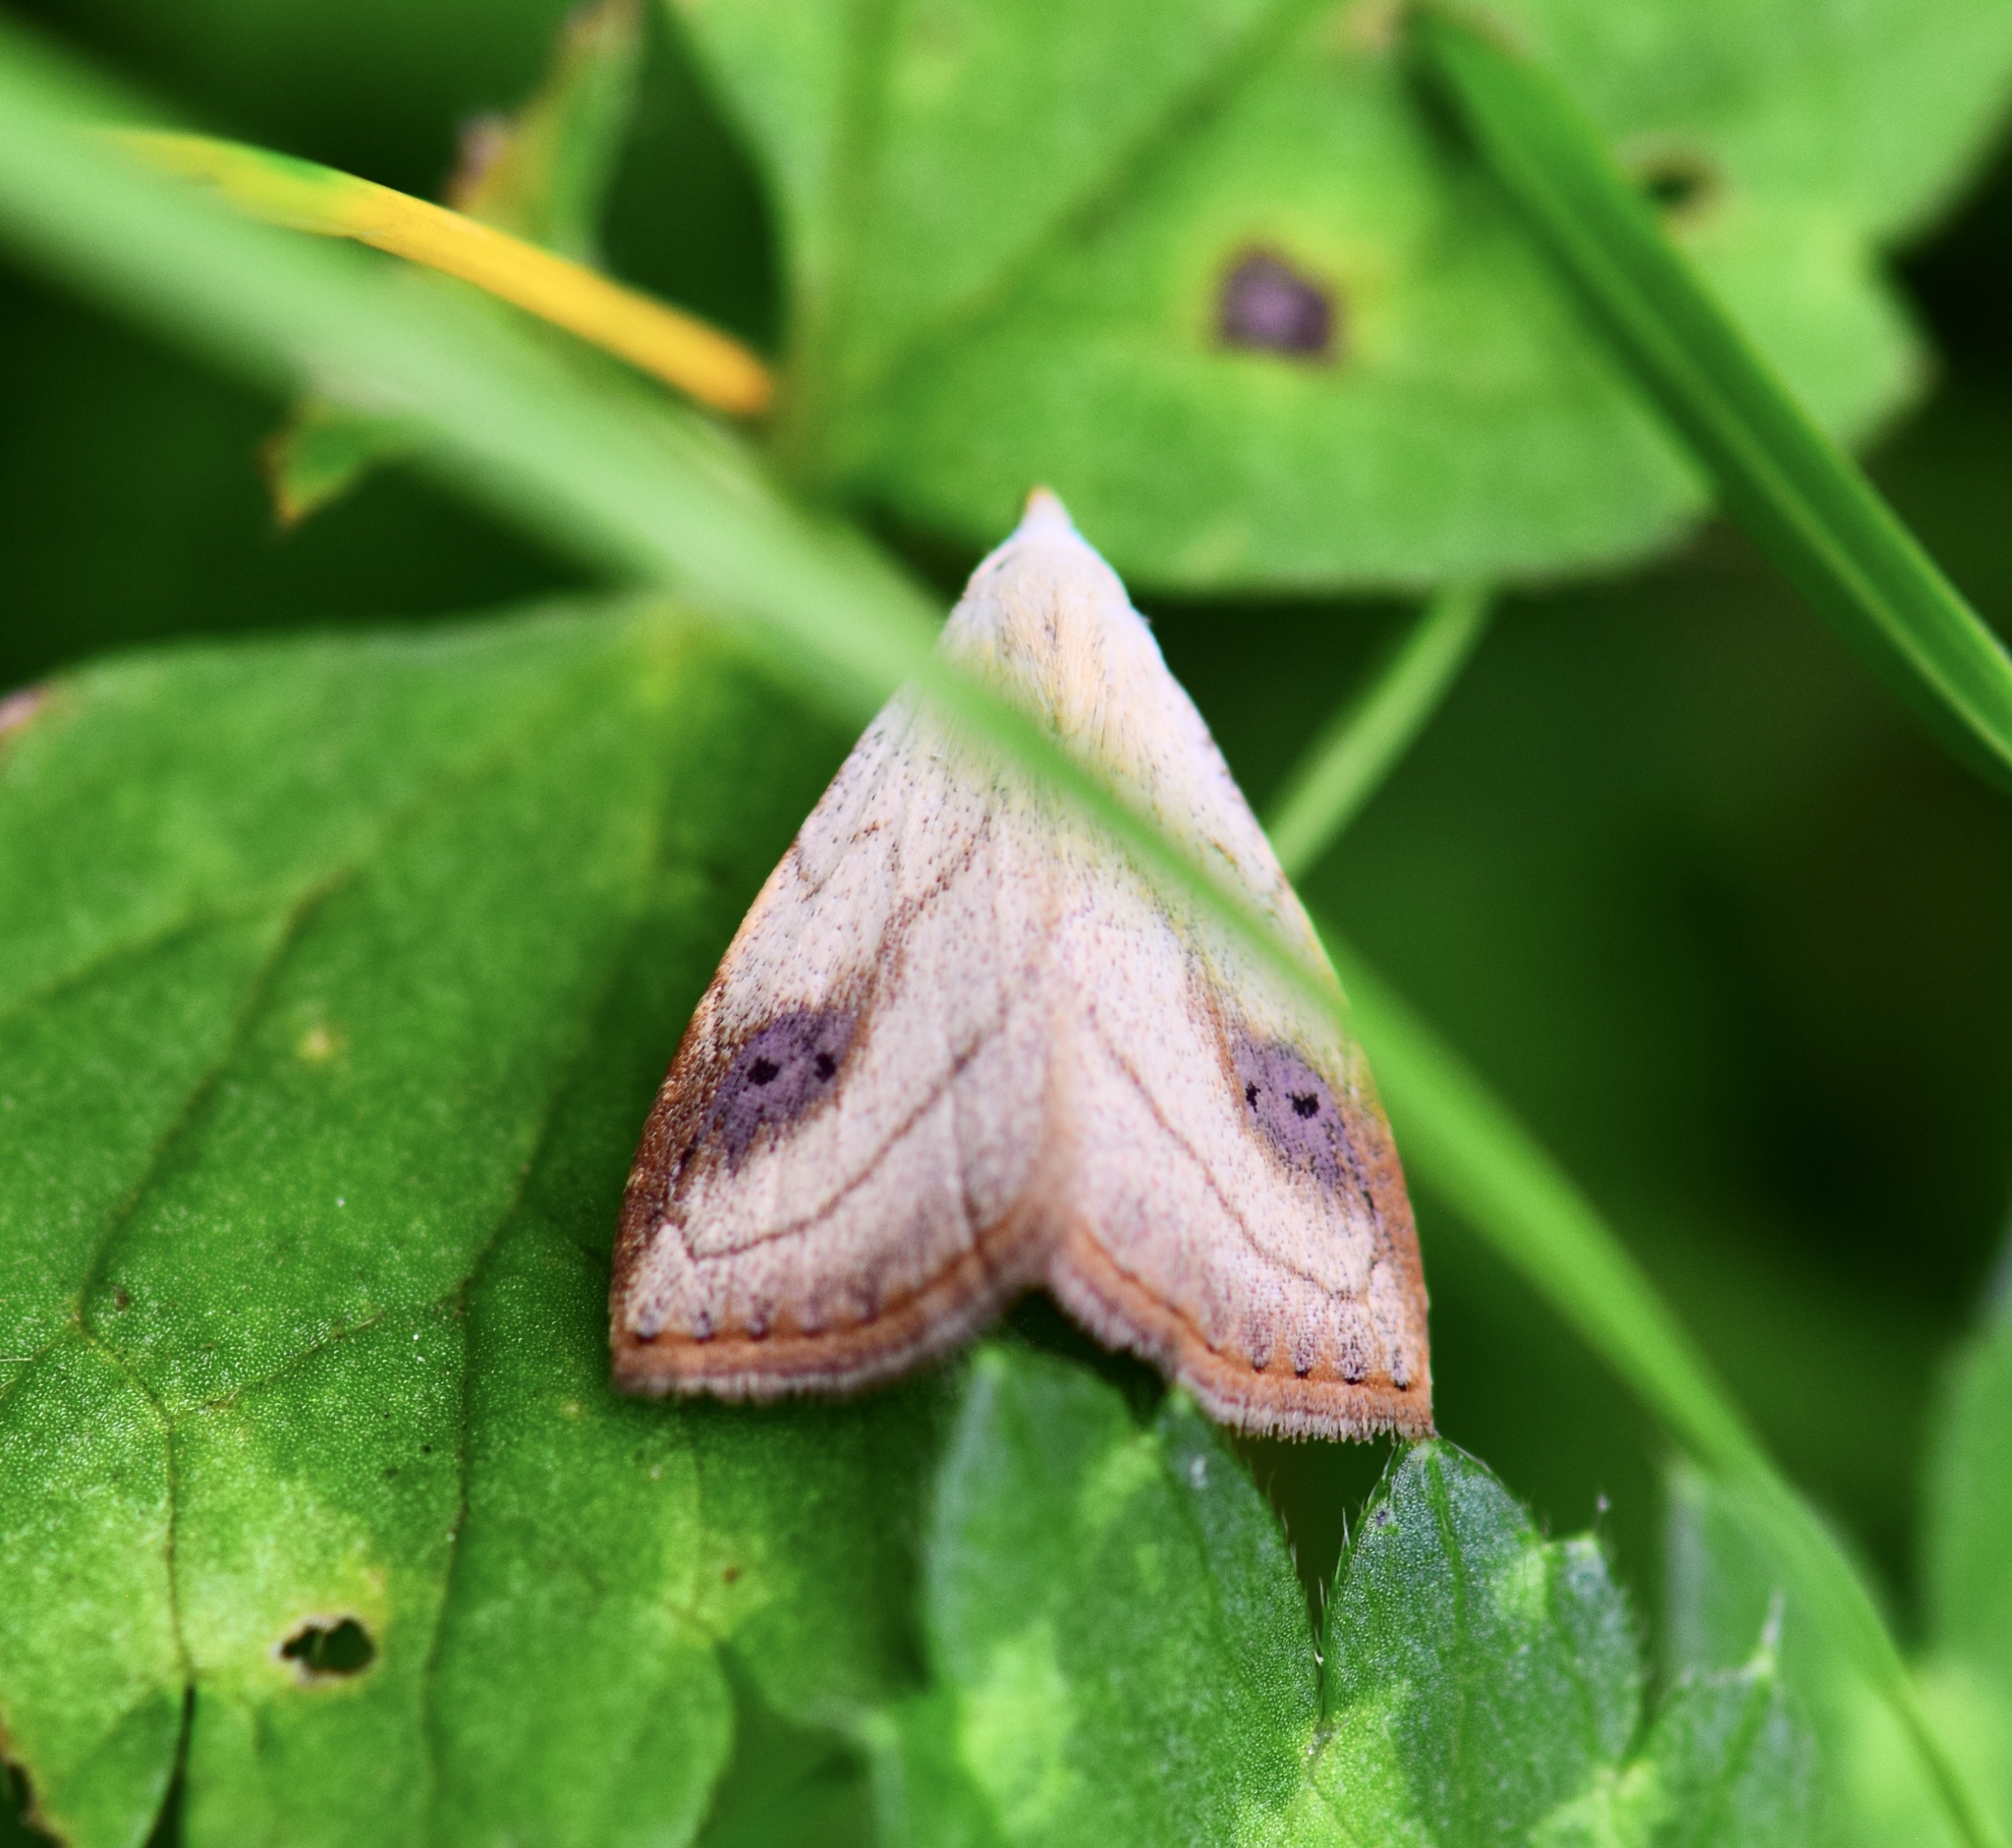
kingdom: Animalia
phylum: Arthropoda
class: Insecta
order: Lepidoptera
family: Erebidae
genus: Rivula
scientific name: Rivula propinqualis
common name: Spotted grass moth
